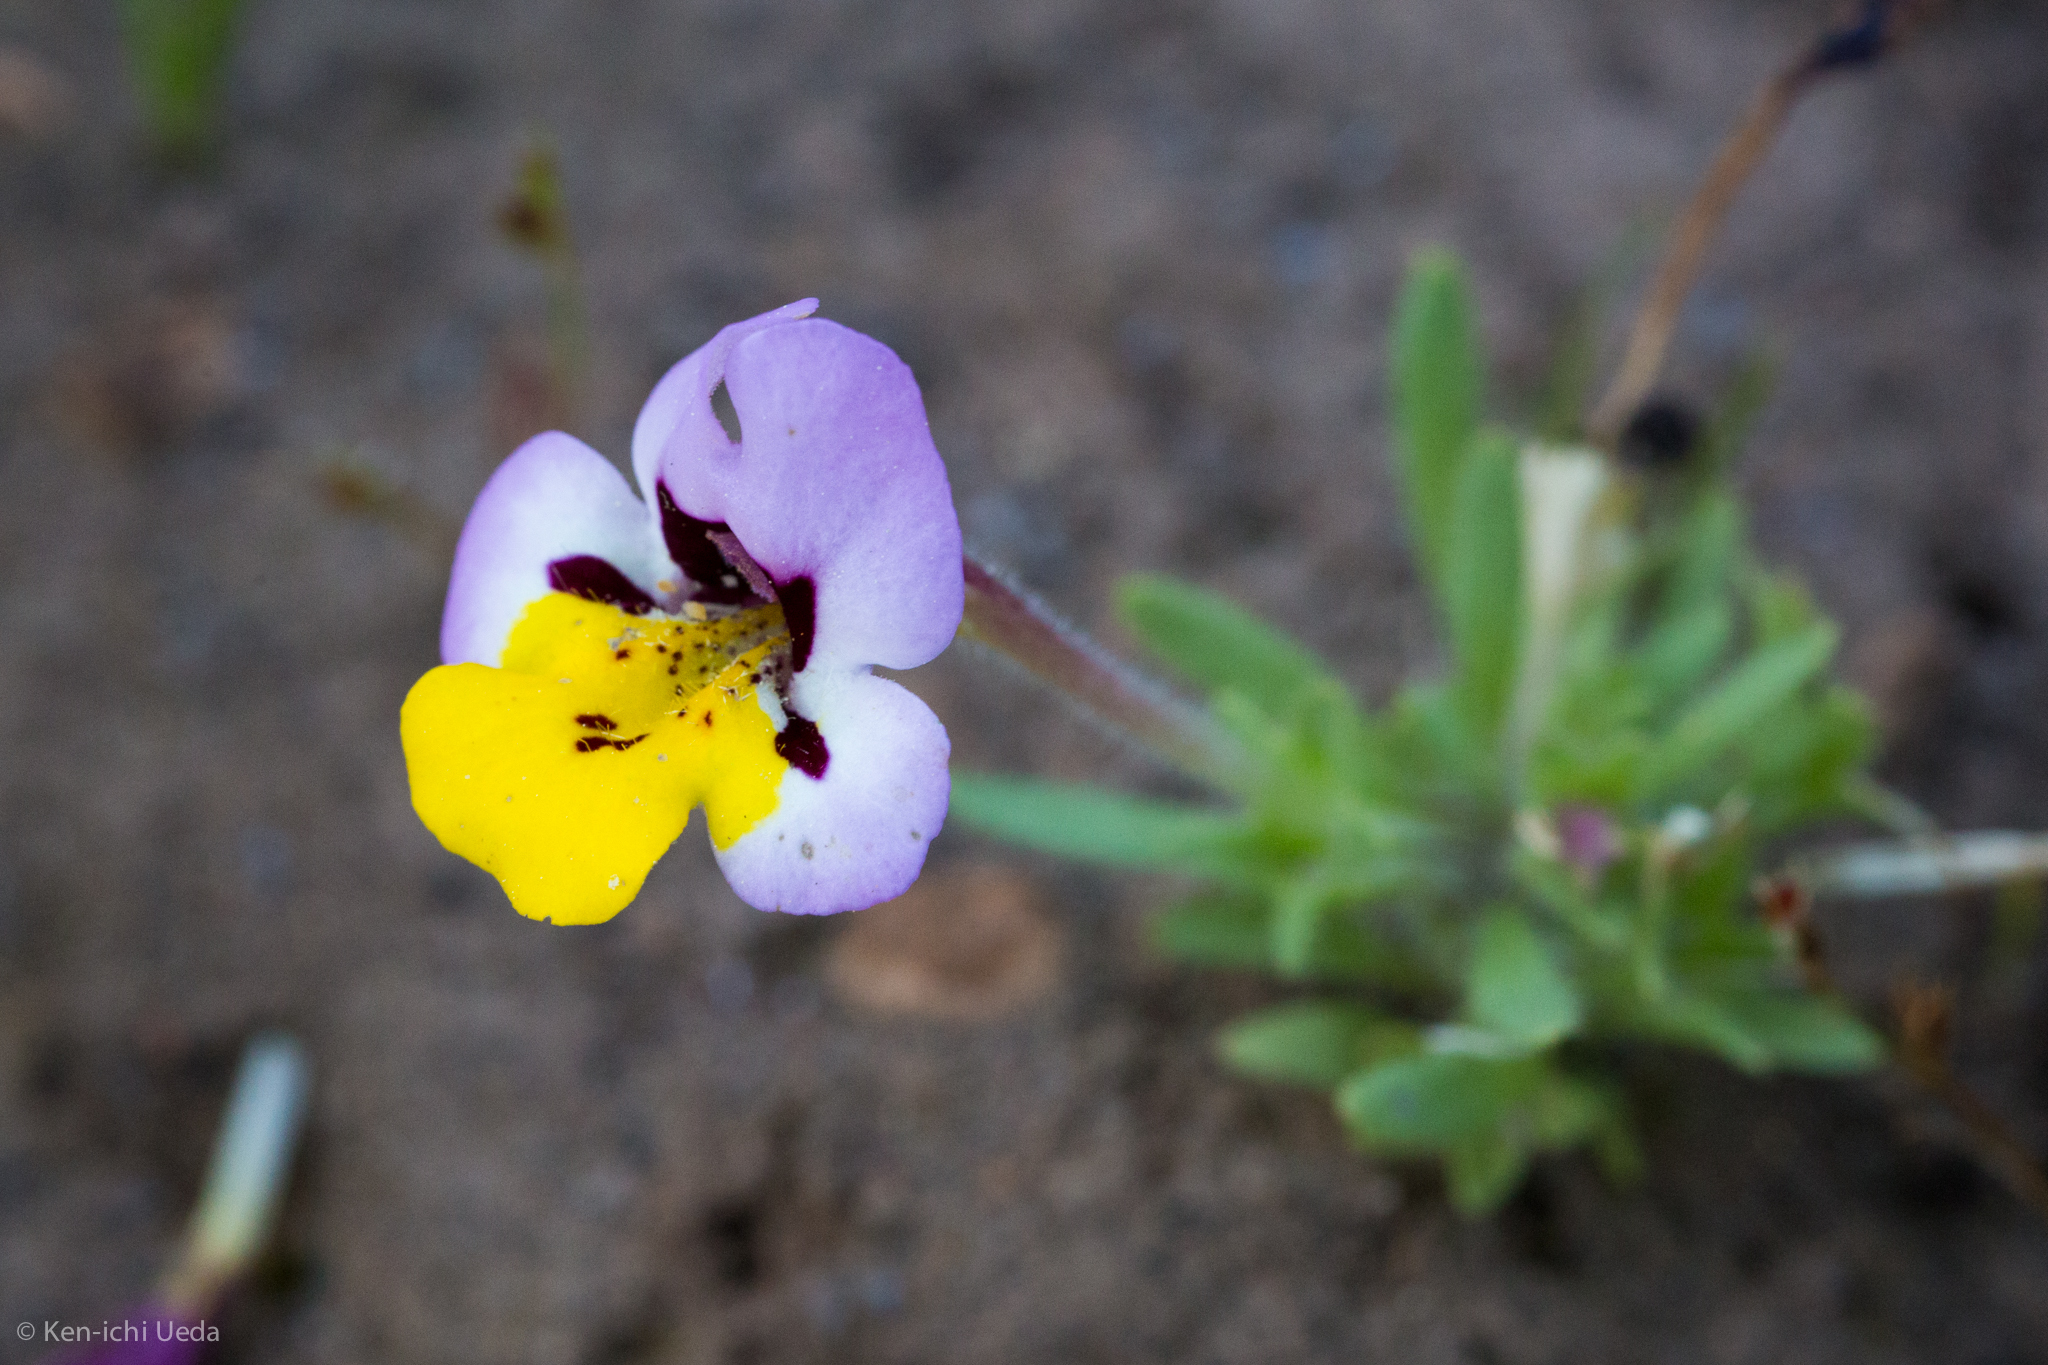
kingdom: Plantae
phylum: Tracheophyta
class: Magnoliopsida
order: Lamiales
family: Phrymaceae
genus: Diplacus
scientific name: Diplacus pulchellus
